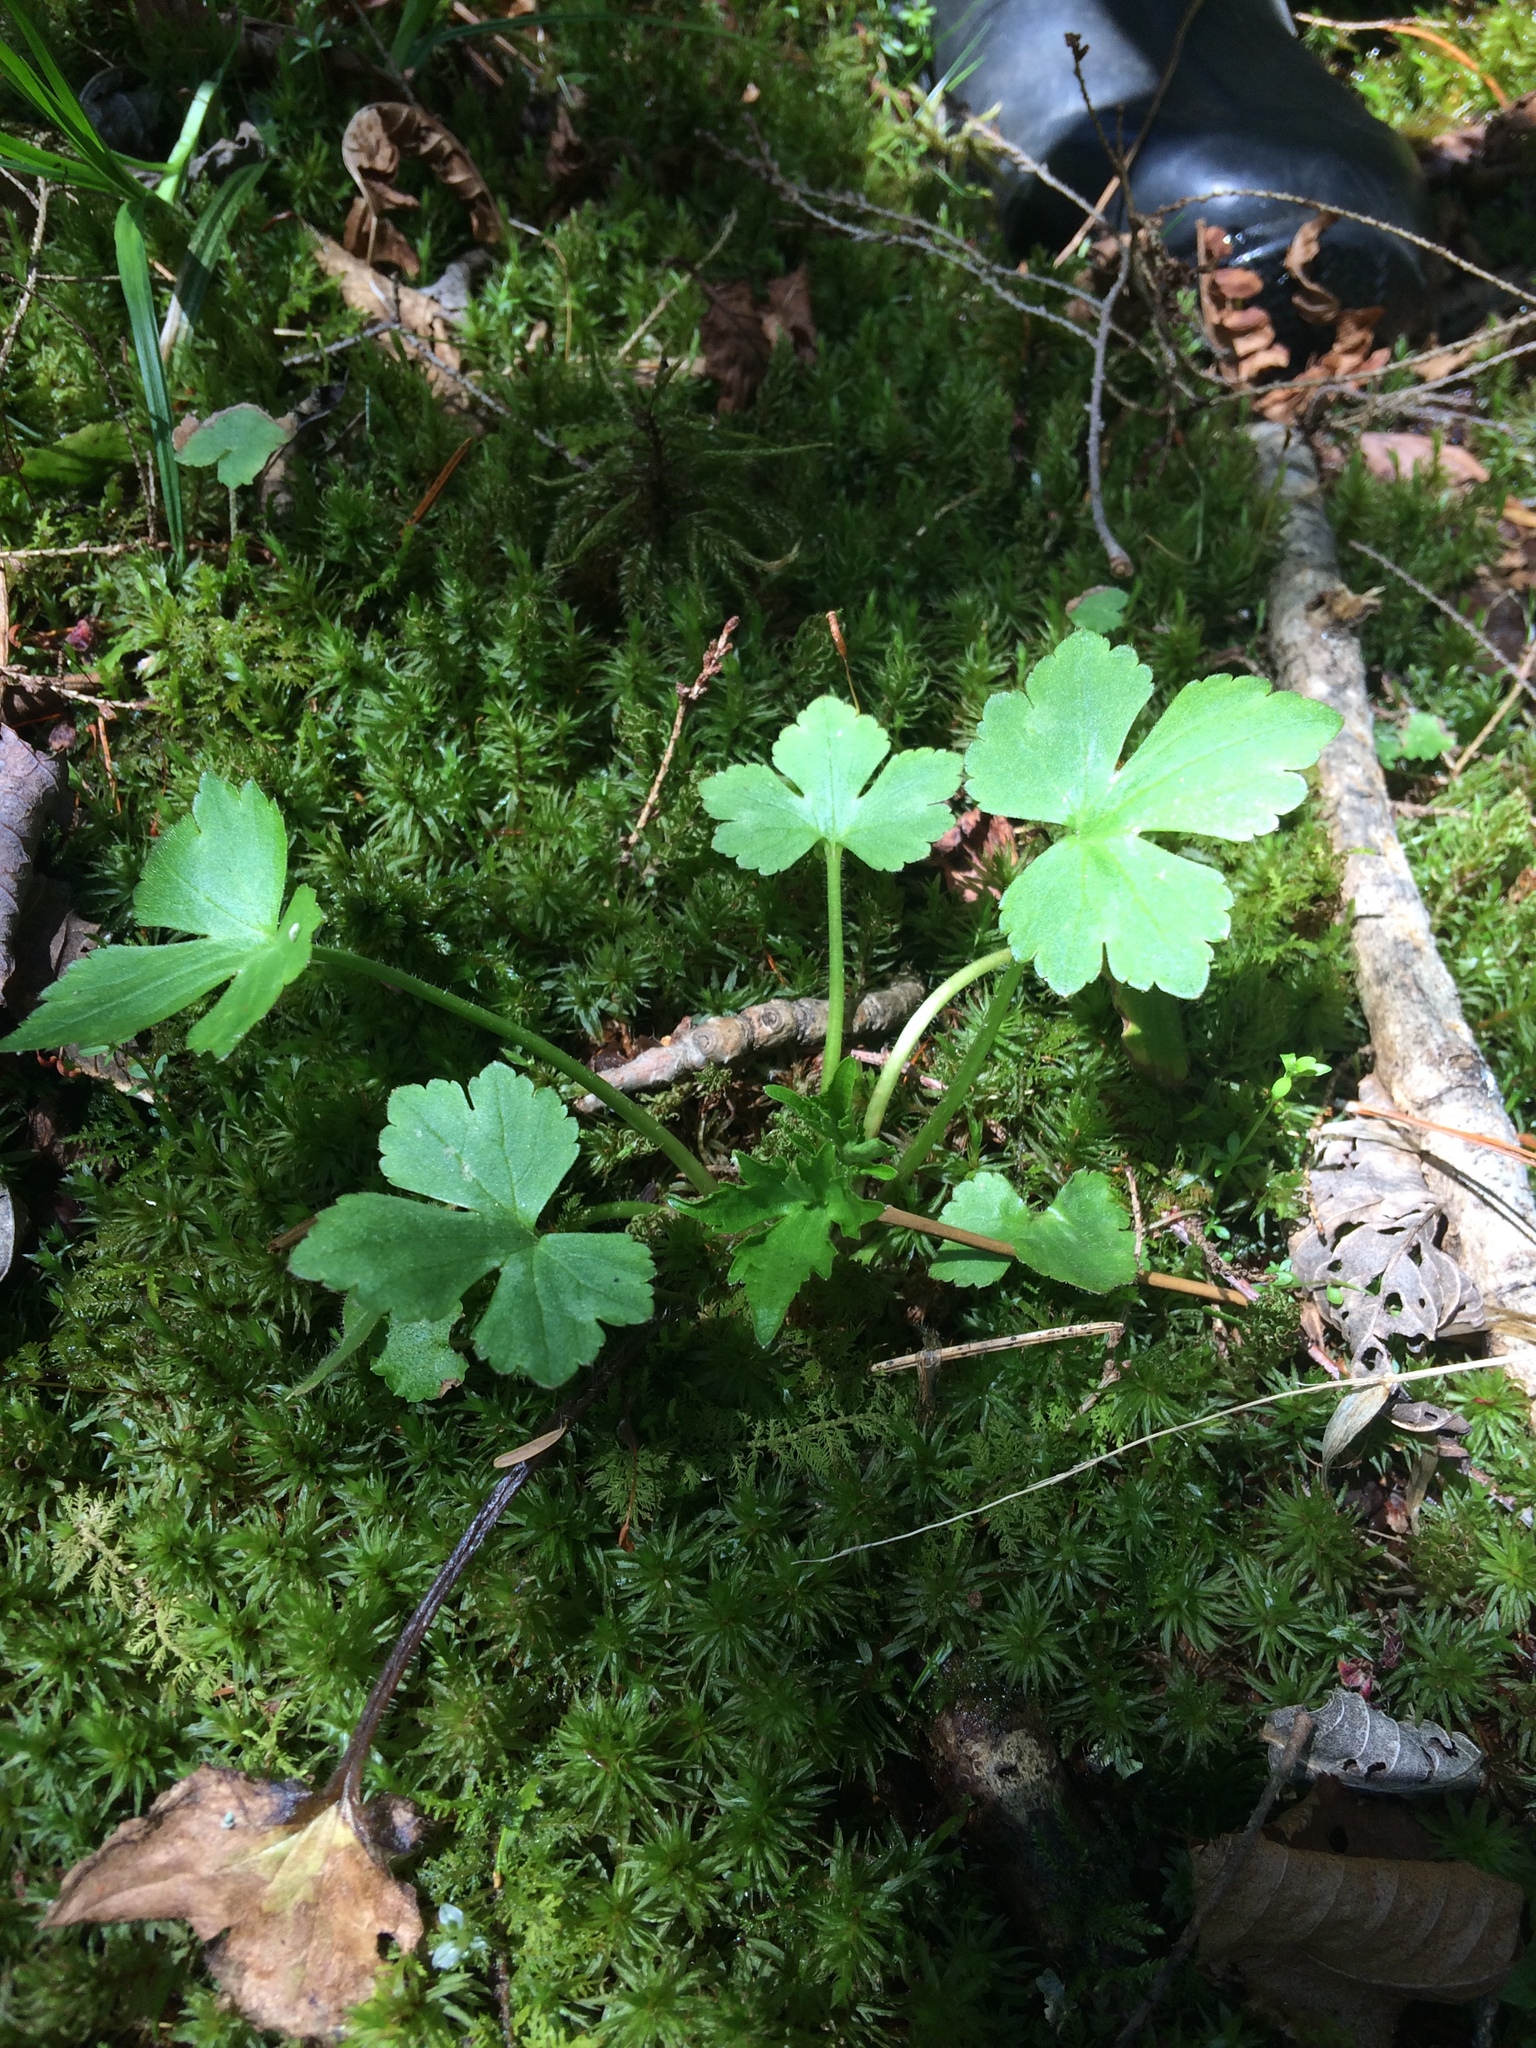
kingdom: Plantae
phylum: Tracheophyta
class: Magnoliopsida
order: Ranunculales
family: Ranunculaceae
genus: Ranunculus
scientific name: Ranunculus recurvatus
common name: Blisterwort
